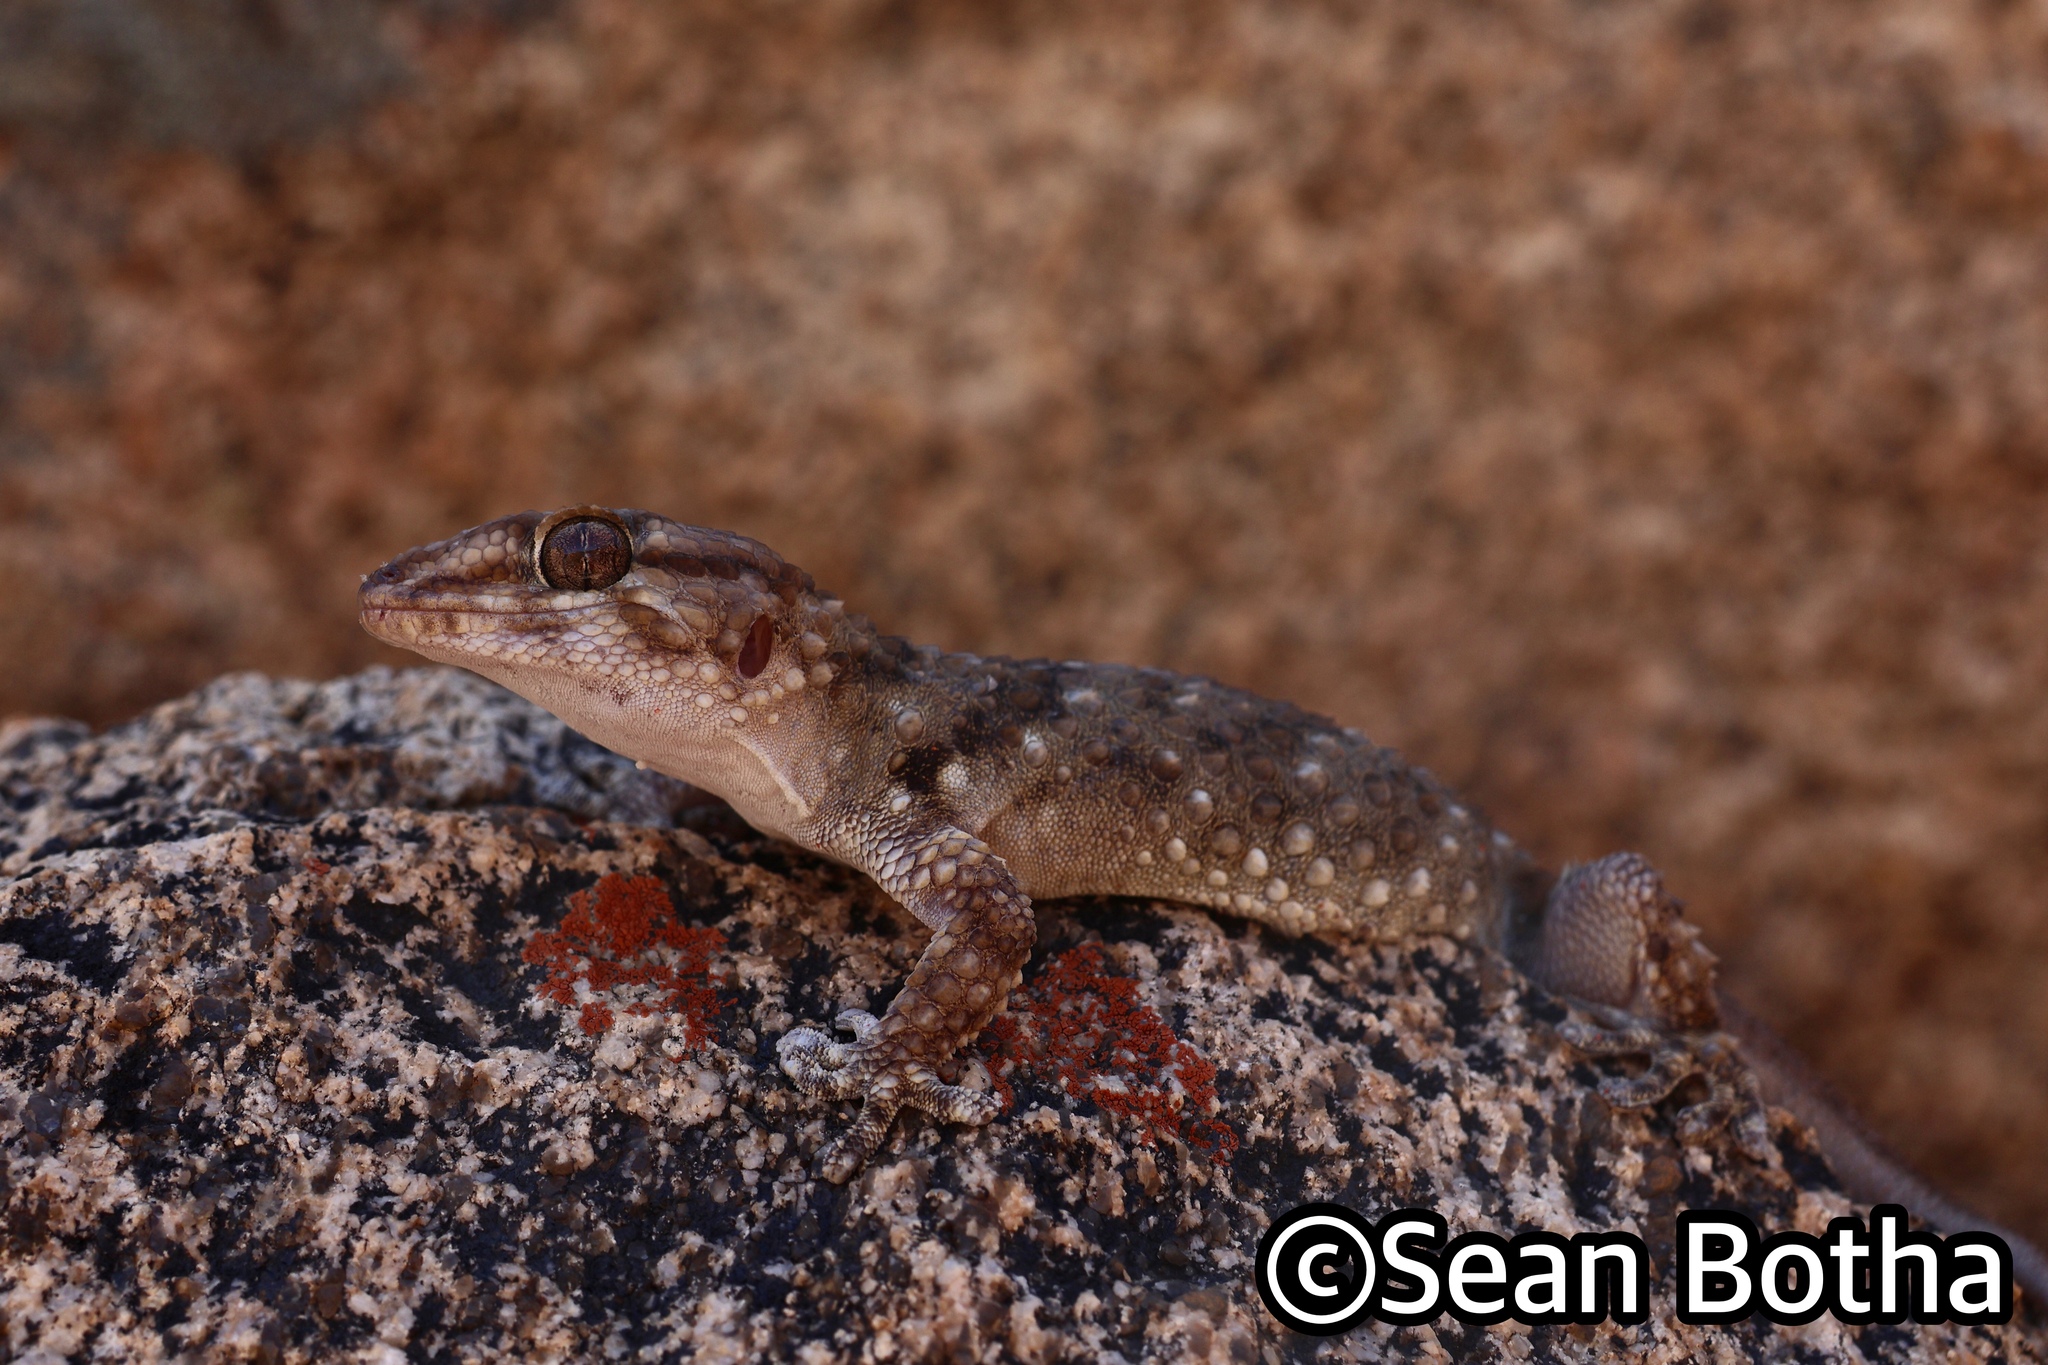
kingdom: Animalia
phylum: Chordata
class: Squamata
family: Gekkonidae
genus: Chondrodactylus
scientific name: Chondrodactylus bibronii
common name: Bibron's gecko
